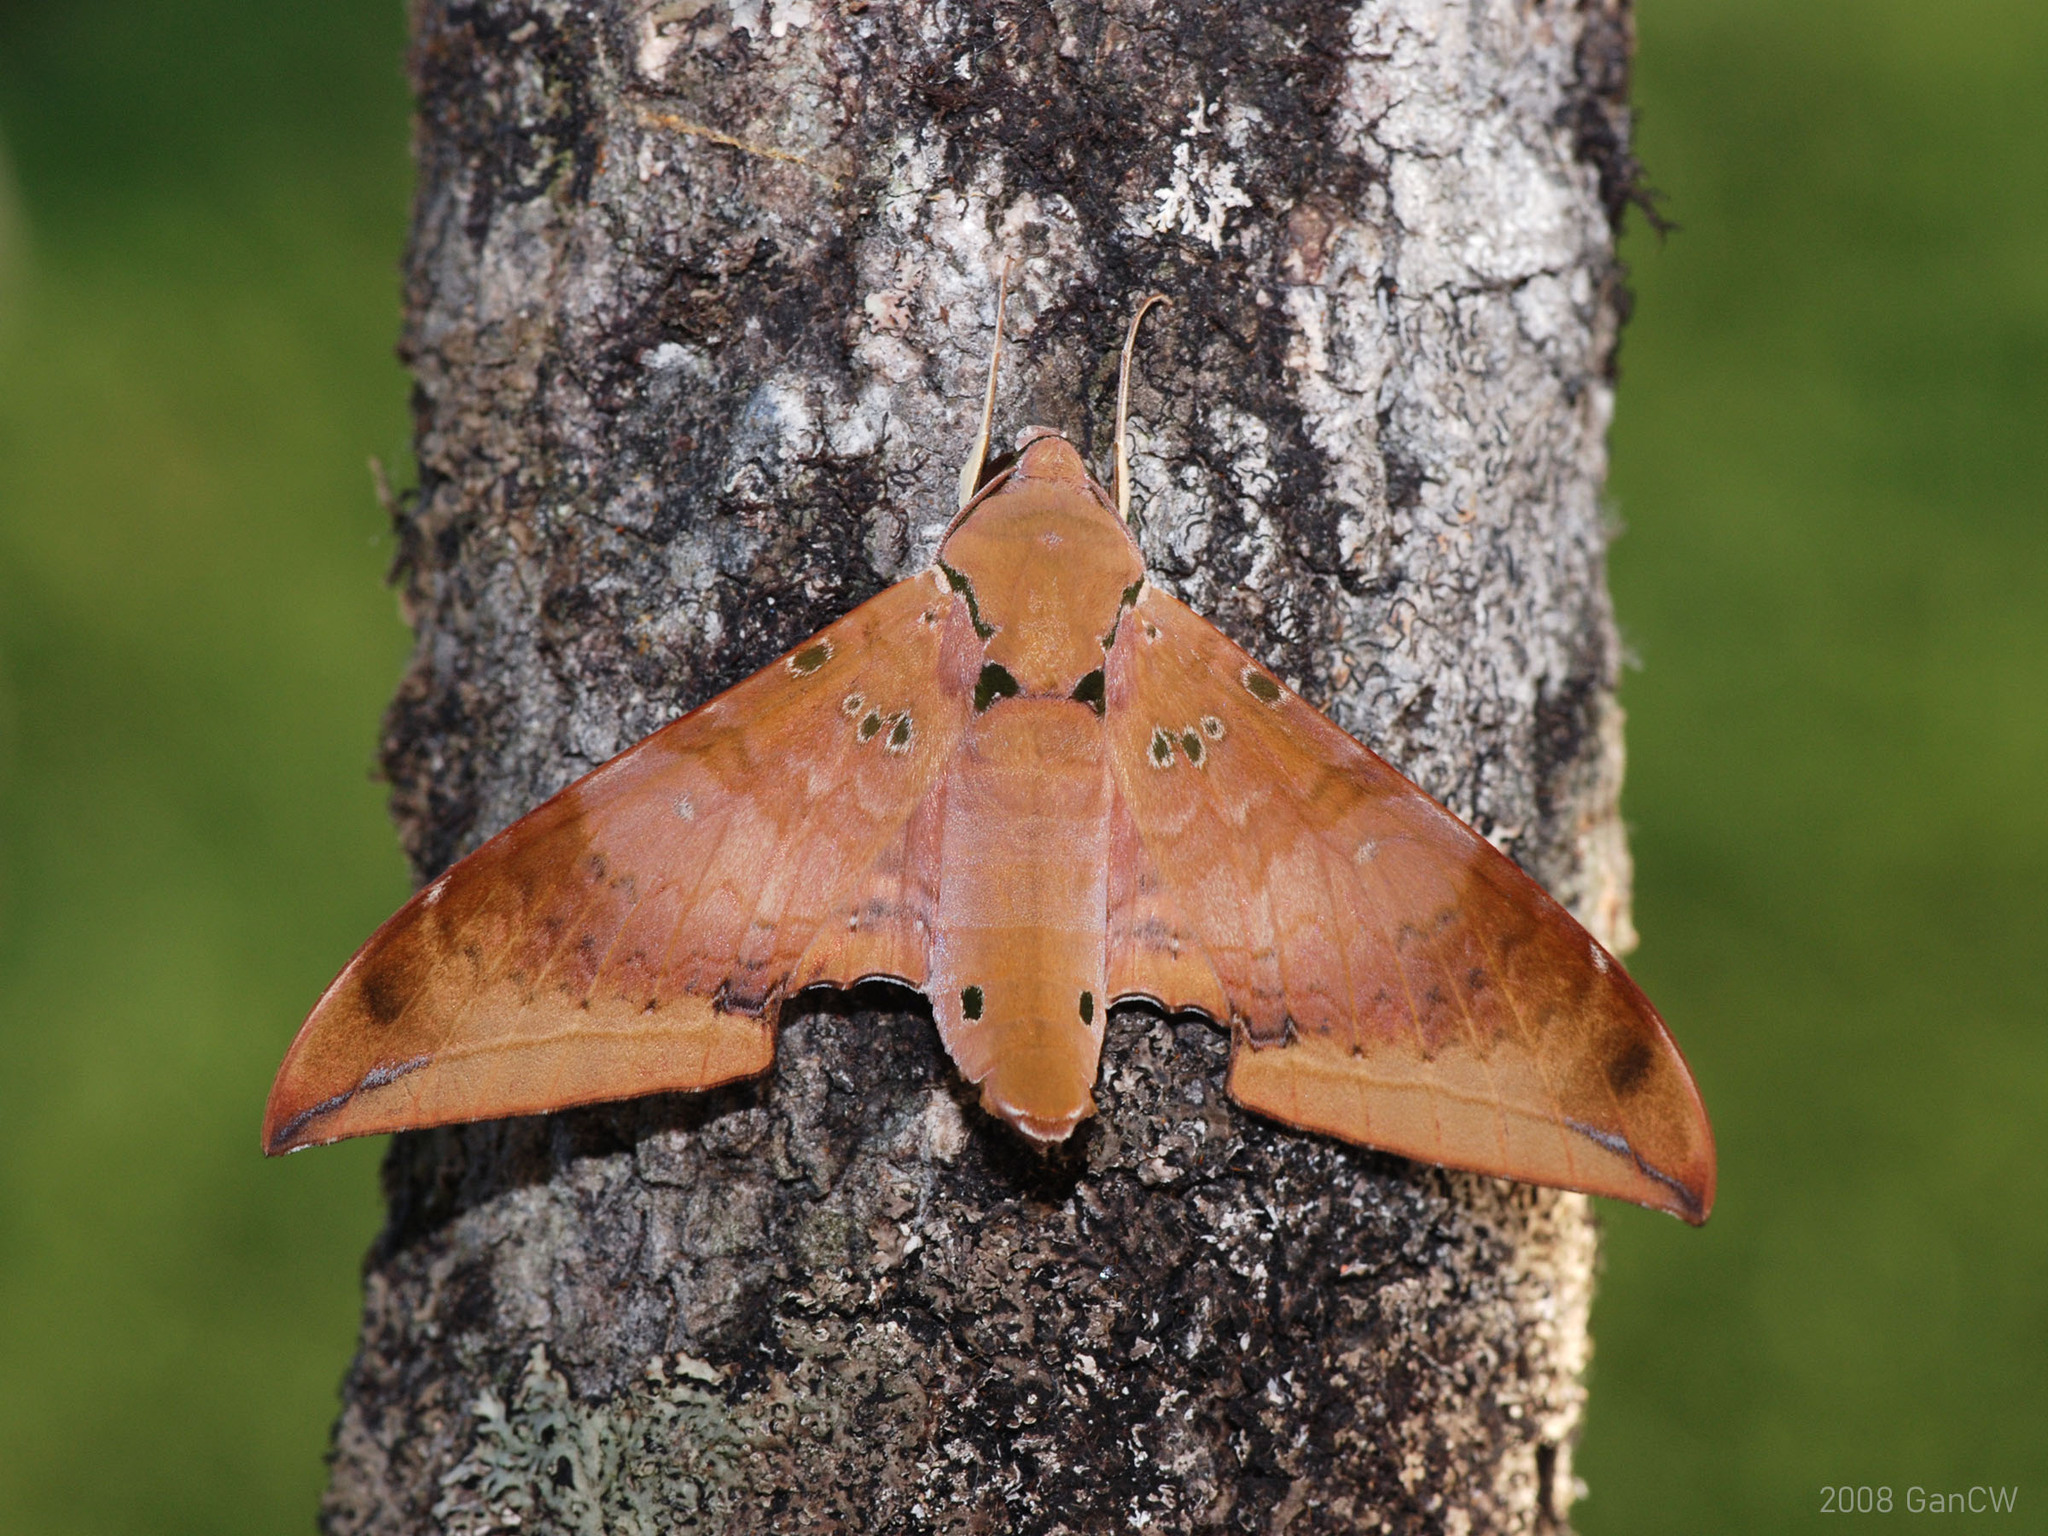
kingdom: Animalia
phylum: Arthropoda
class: Insecta
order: Lepidoptera
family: Sphingidae
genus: Ambulyx
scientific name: Ambulyx moorei
